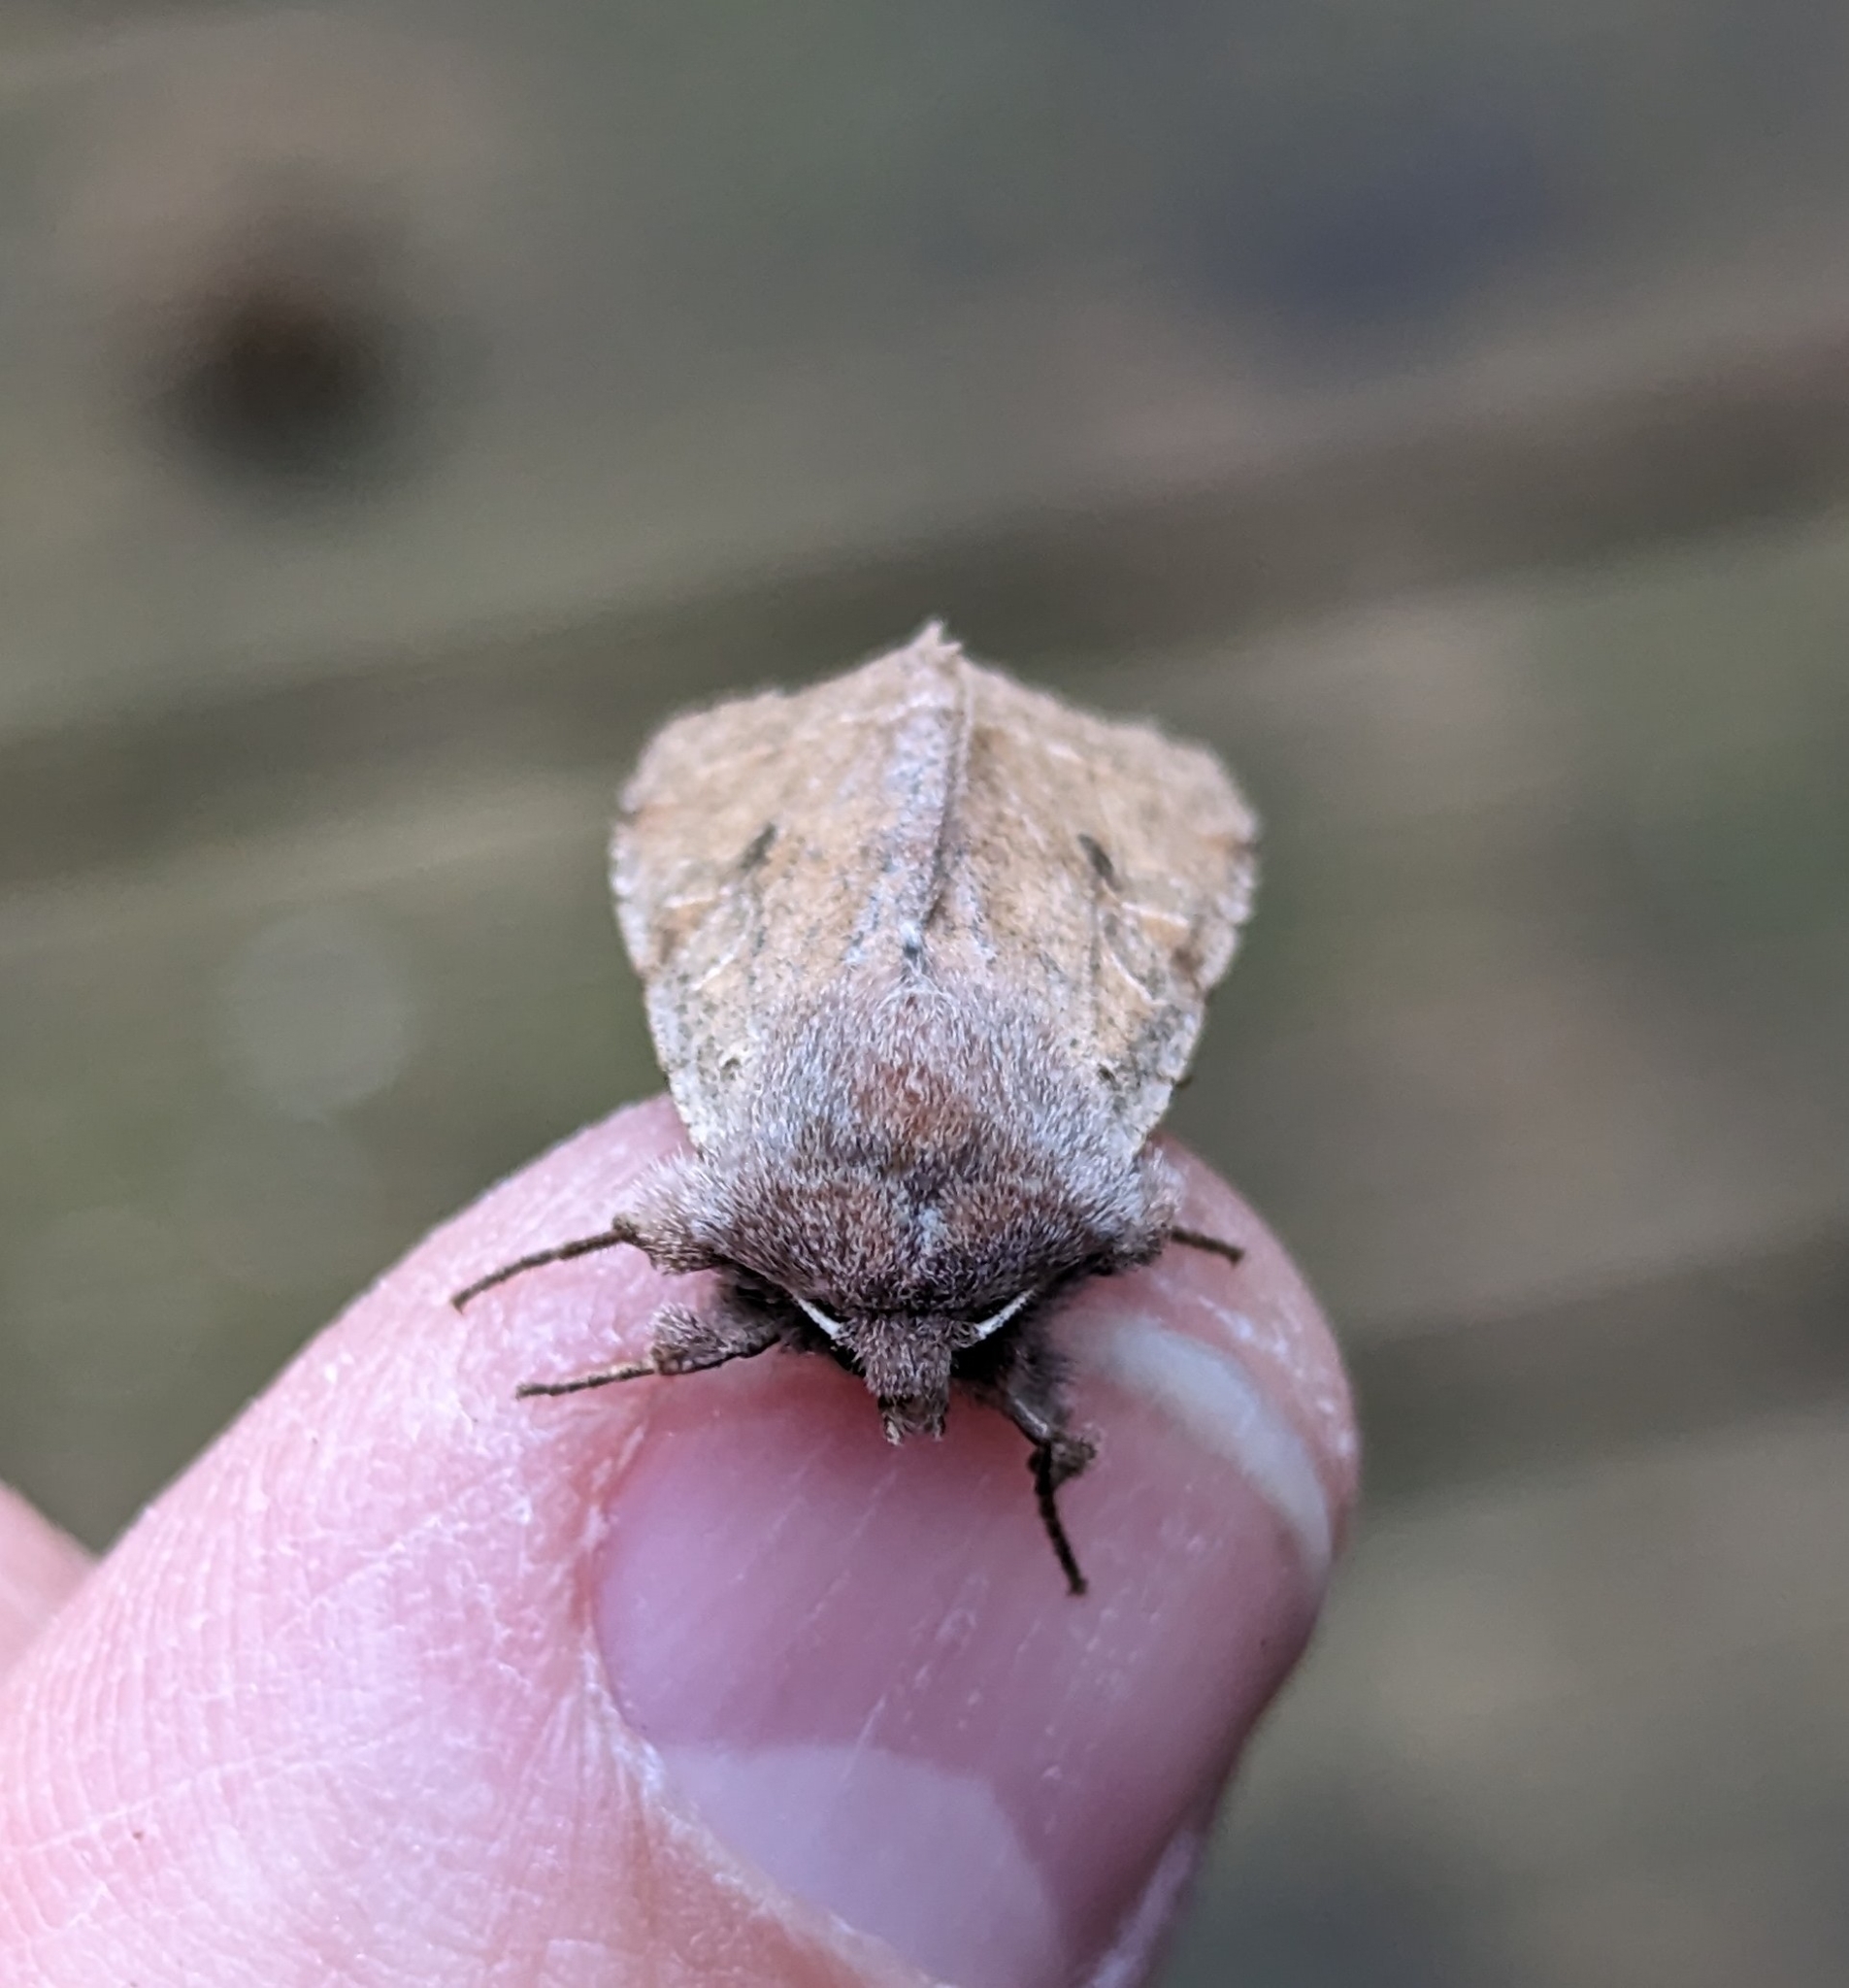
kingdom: Animalia
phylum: Arthropoda
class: Insecta
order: Lepidoptera
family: Noctuidae
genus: Orthosia
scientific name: Orthosia hibisci
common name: Green fruitworm
